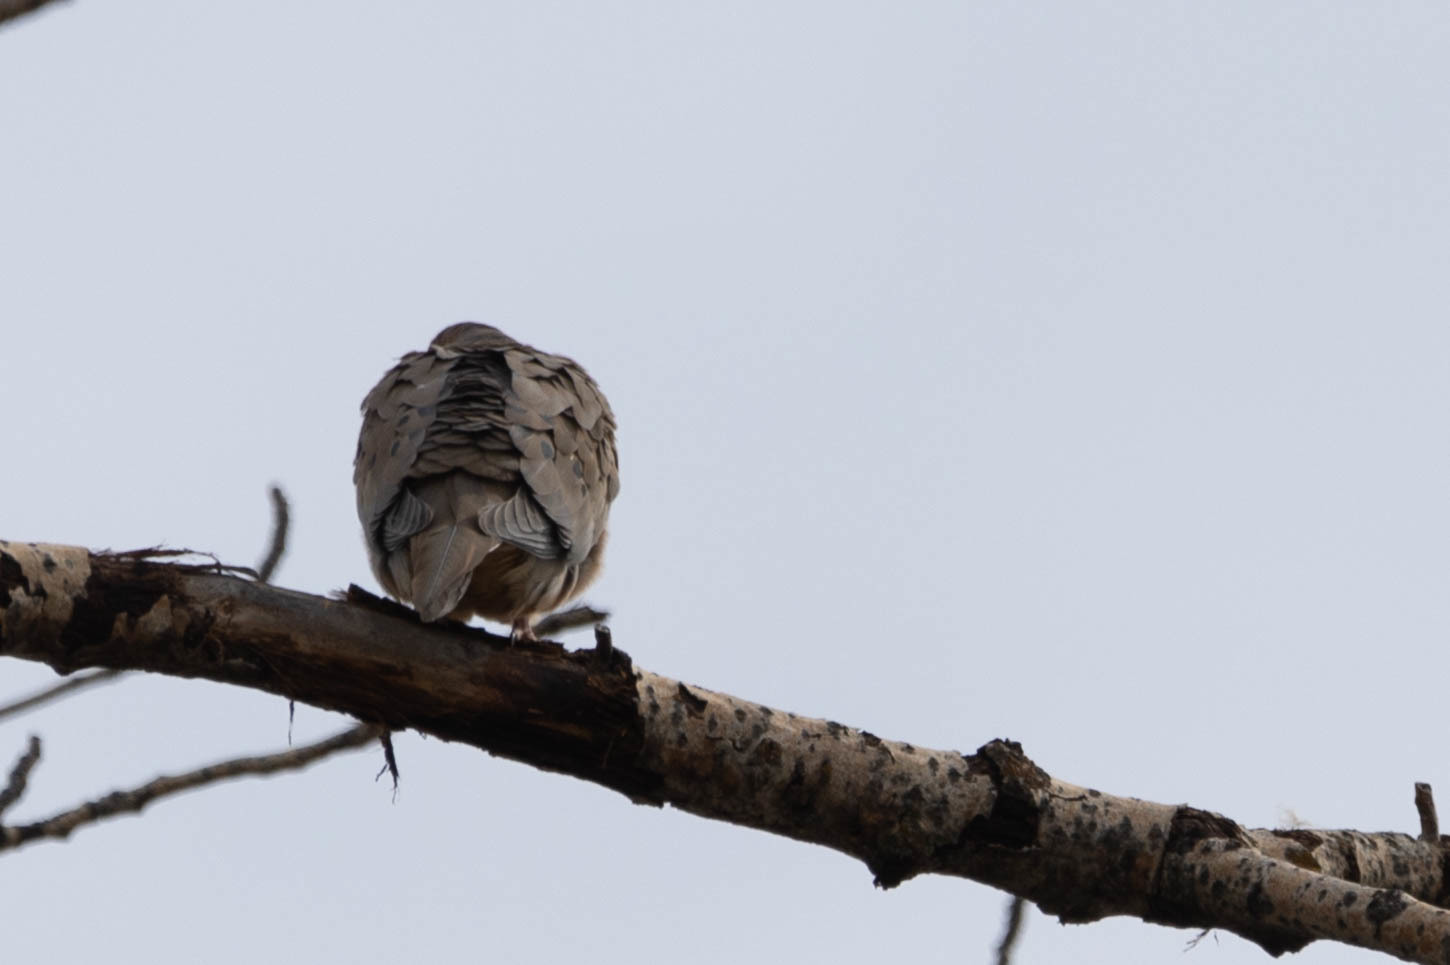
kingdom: Animalia
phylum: Chordata
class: Aves
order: Columbiformes
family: Columbidae
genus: Zenaida
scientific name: Zenaida macroura
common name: Mourning dove
